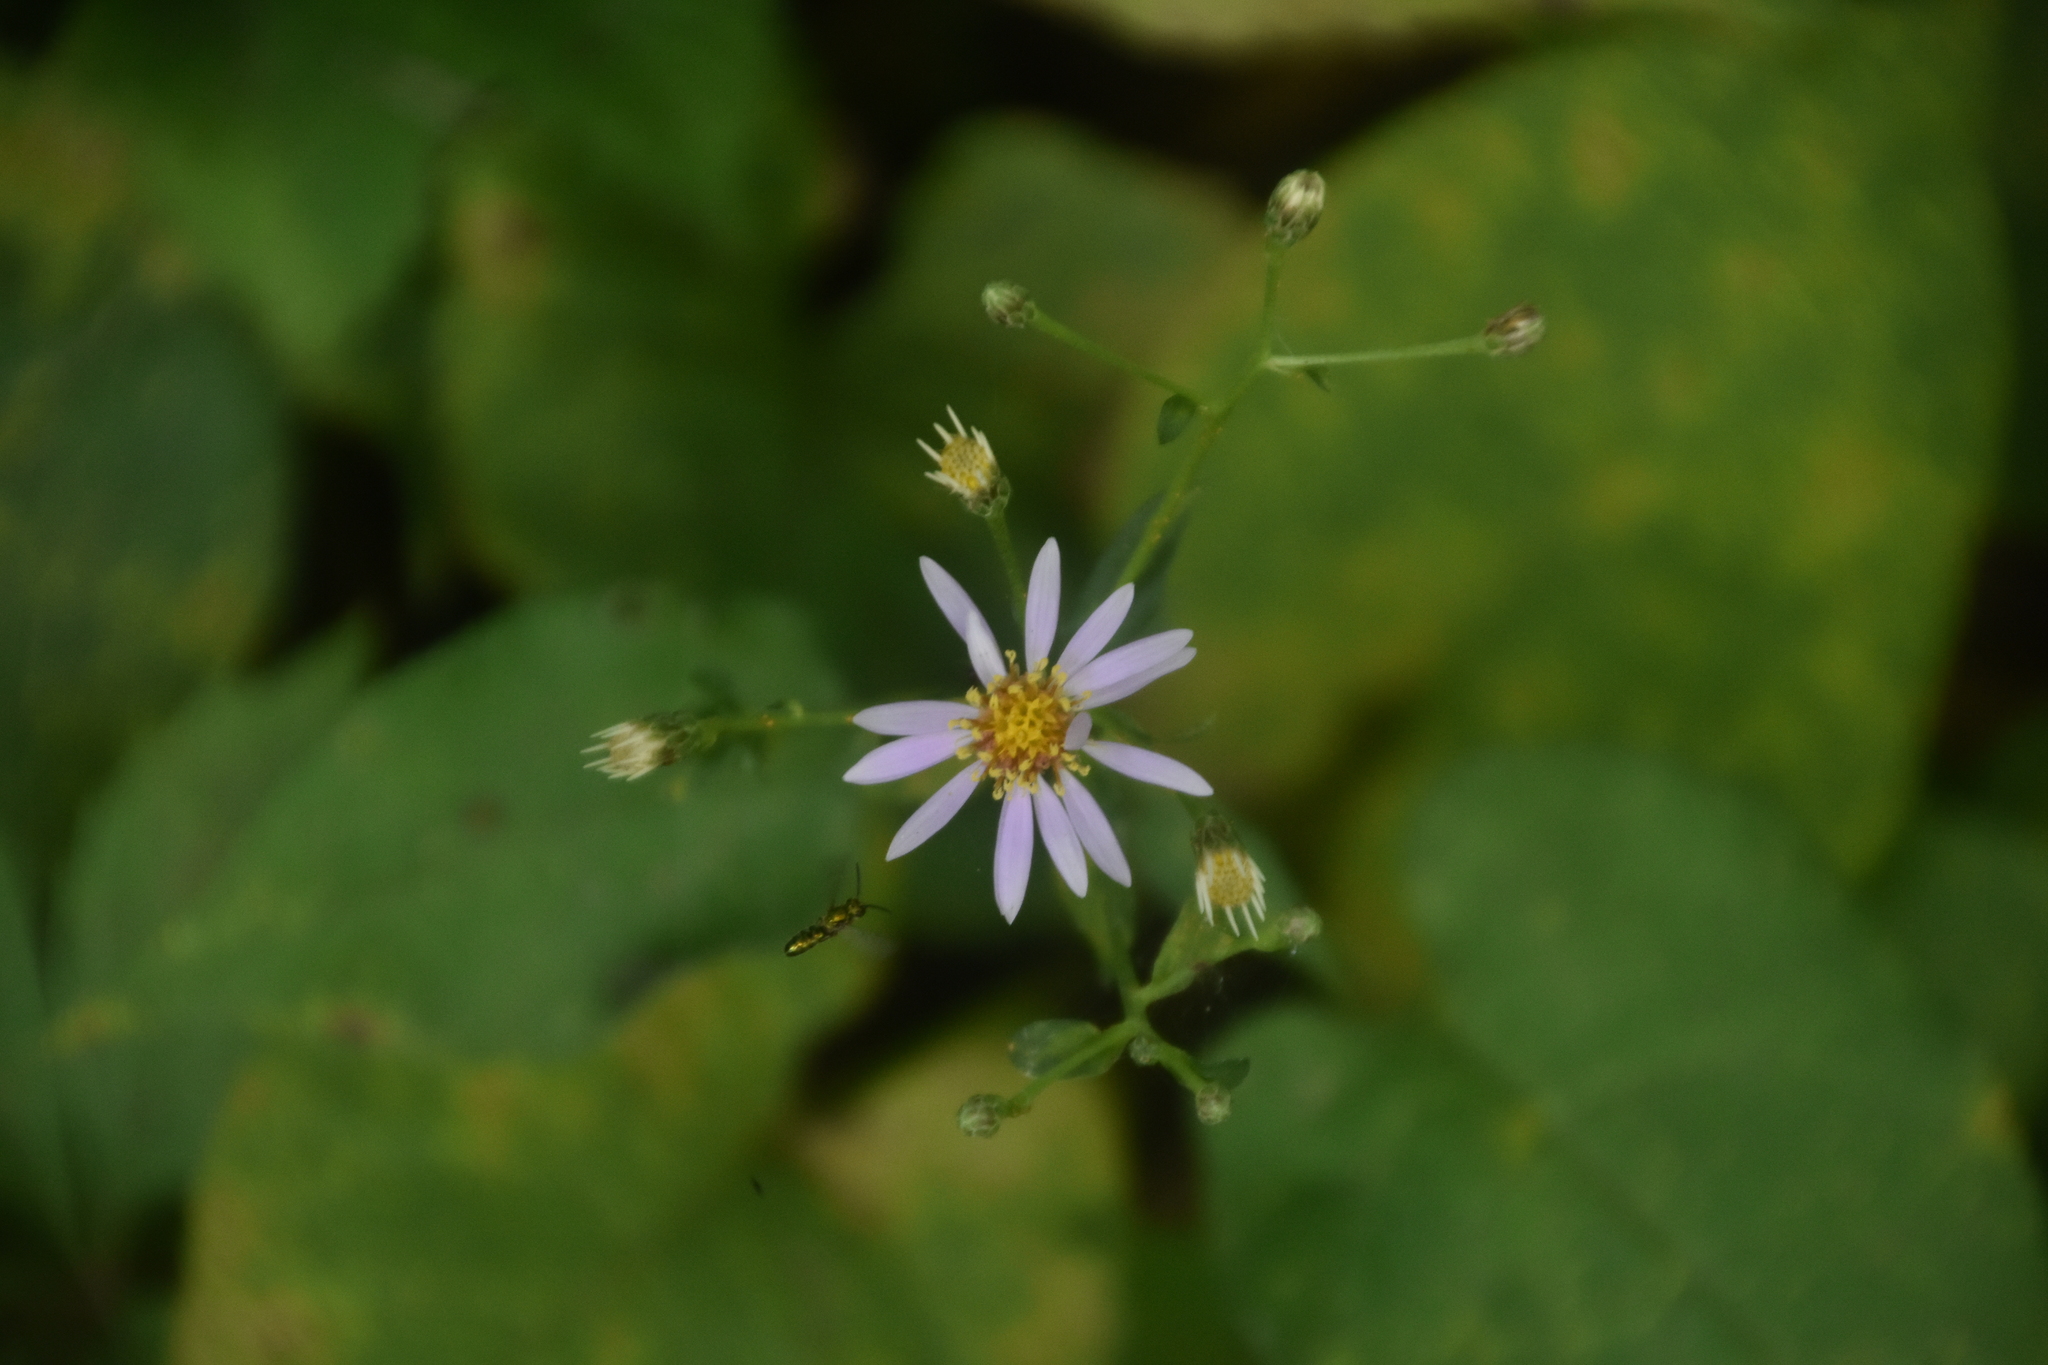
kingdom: Plantae
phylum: Tracheophyta
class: Magnoliopsida
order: Asterales
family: Asteraceae
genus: Eurybia
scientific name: Eurybia macrophylla
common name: Big-leaved aster
